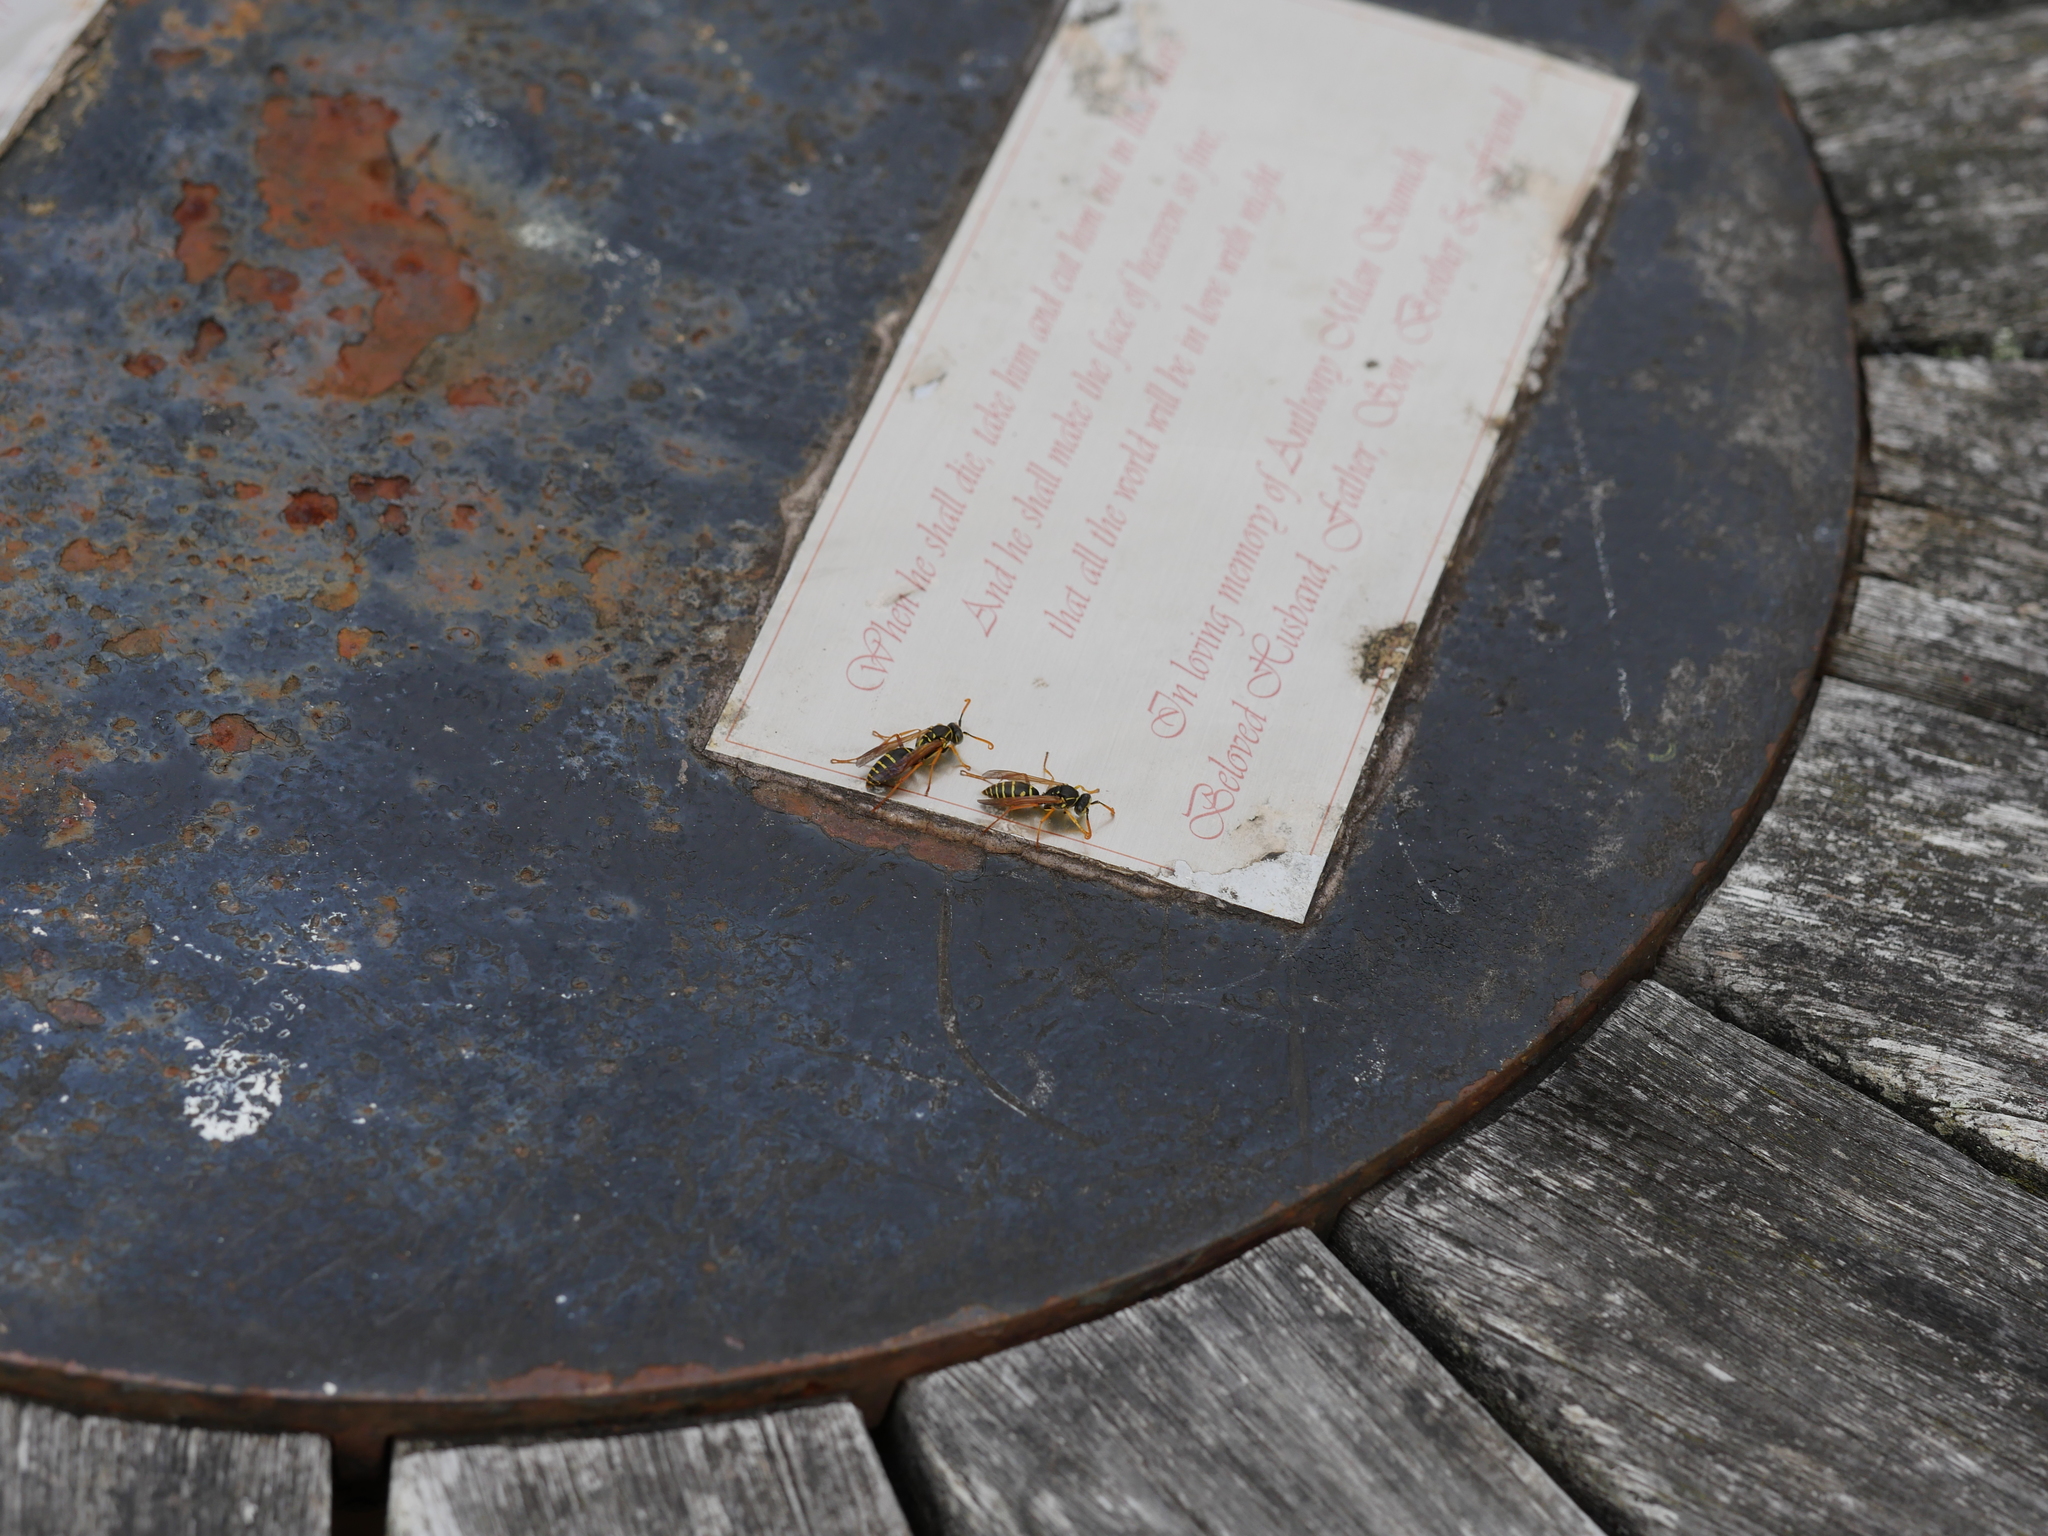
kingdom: Animalia
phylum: Arthropoda
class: Insecta
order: Hymenoptera
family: Eumenidae
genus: Polistes
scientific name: Polistes chinensis
